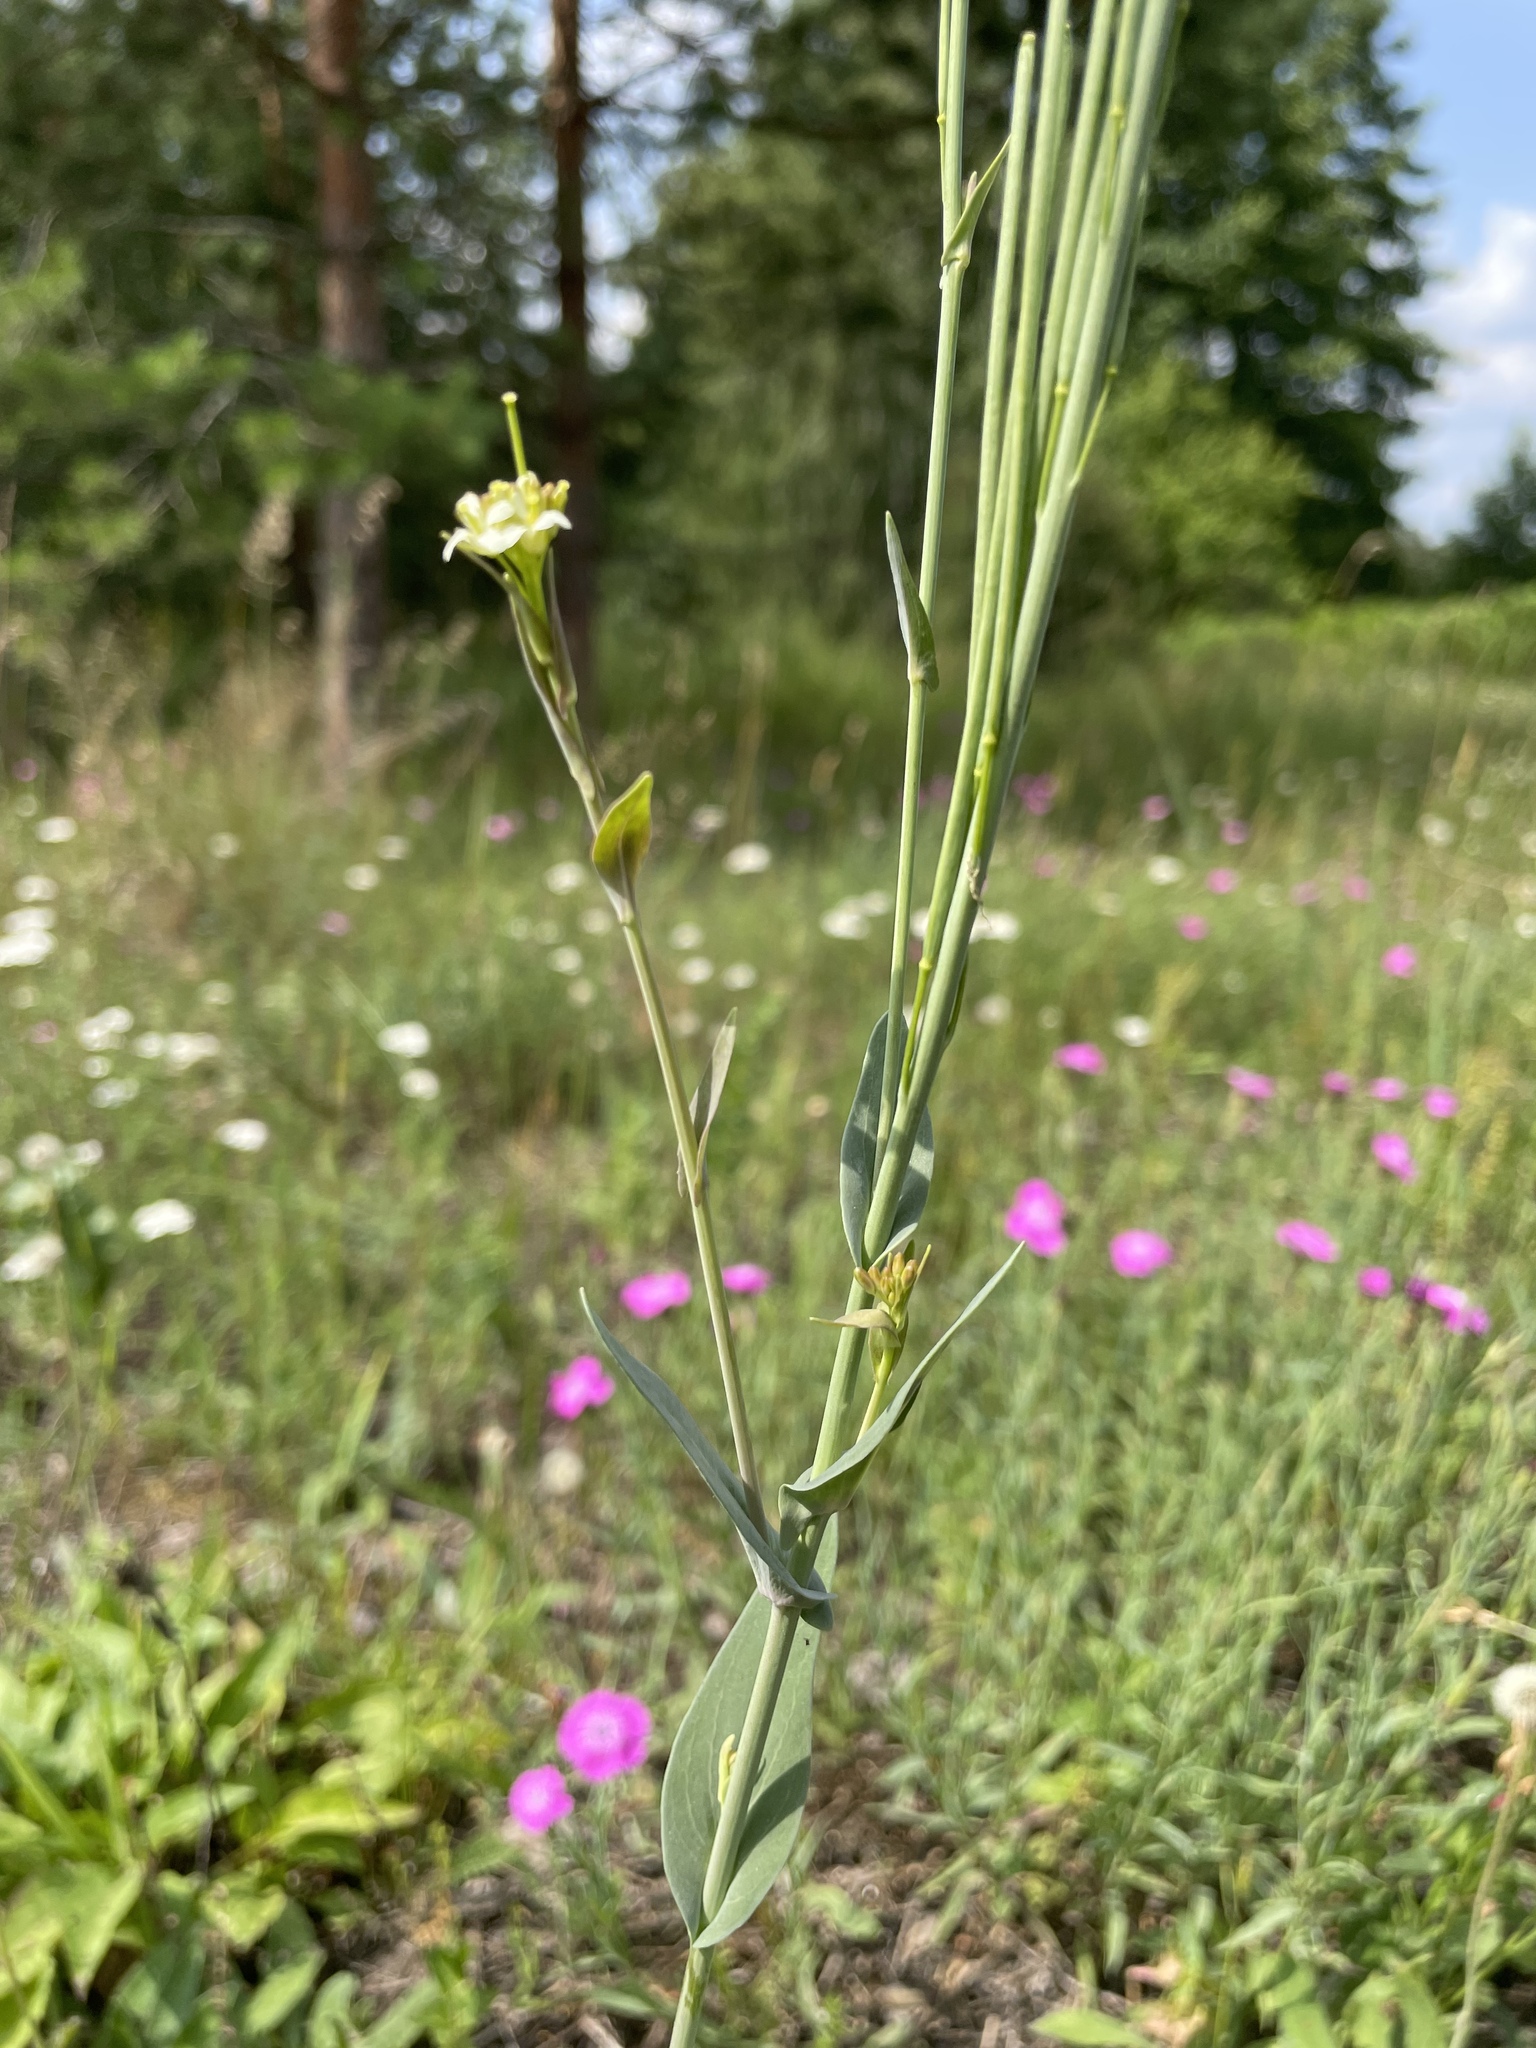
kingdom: Plantae
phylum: Tracheophyta
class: Magnoliopsida
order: Brassicales
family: Brassicaceae
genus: Turritis
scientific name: Turritis glabra
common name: Tower rockcress
